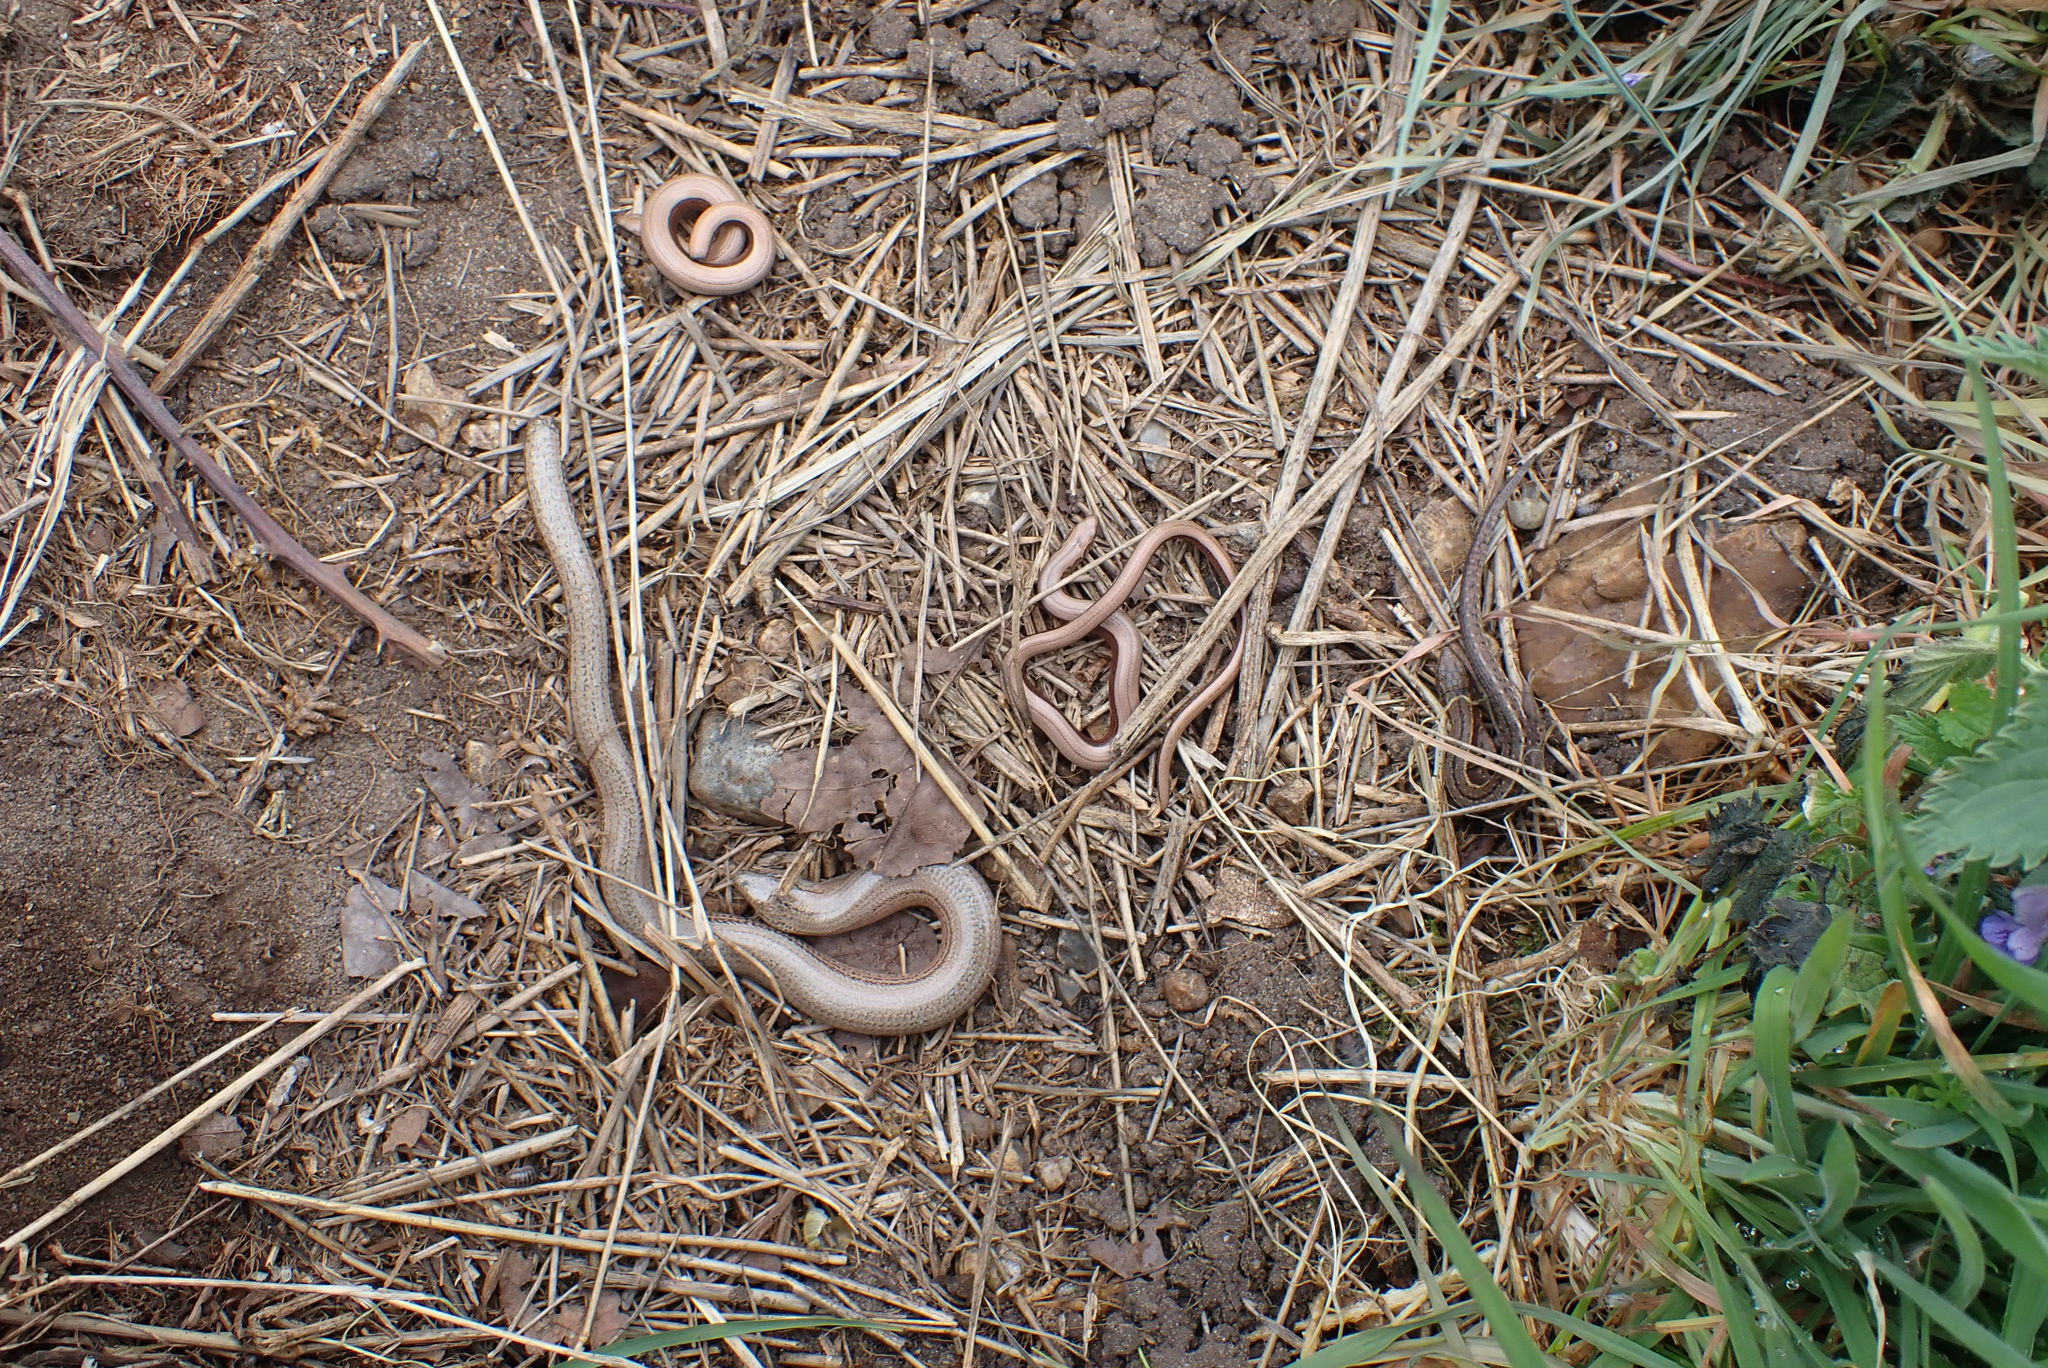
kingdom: Animalia
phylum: Chordata
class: Squamata
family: Anguidae
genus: Anguis
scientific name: Anguis fragilis
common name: Slow worm
